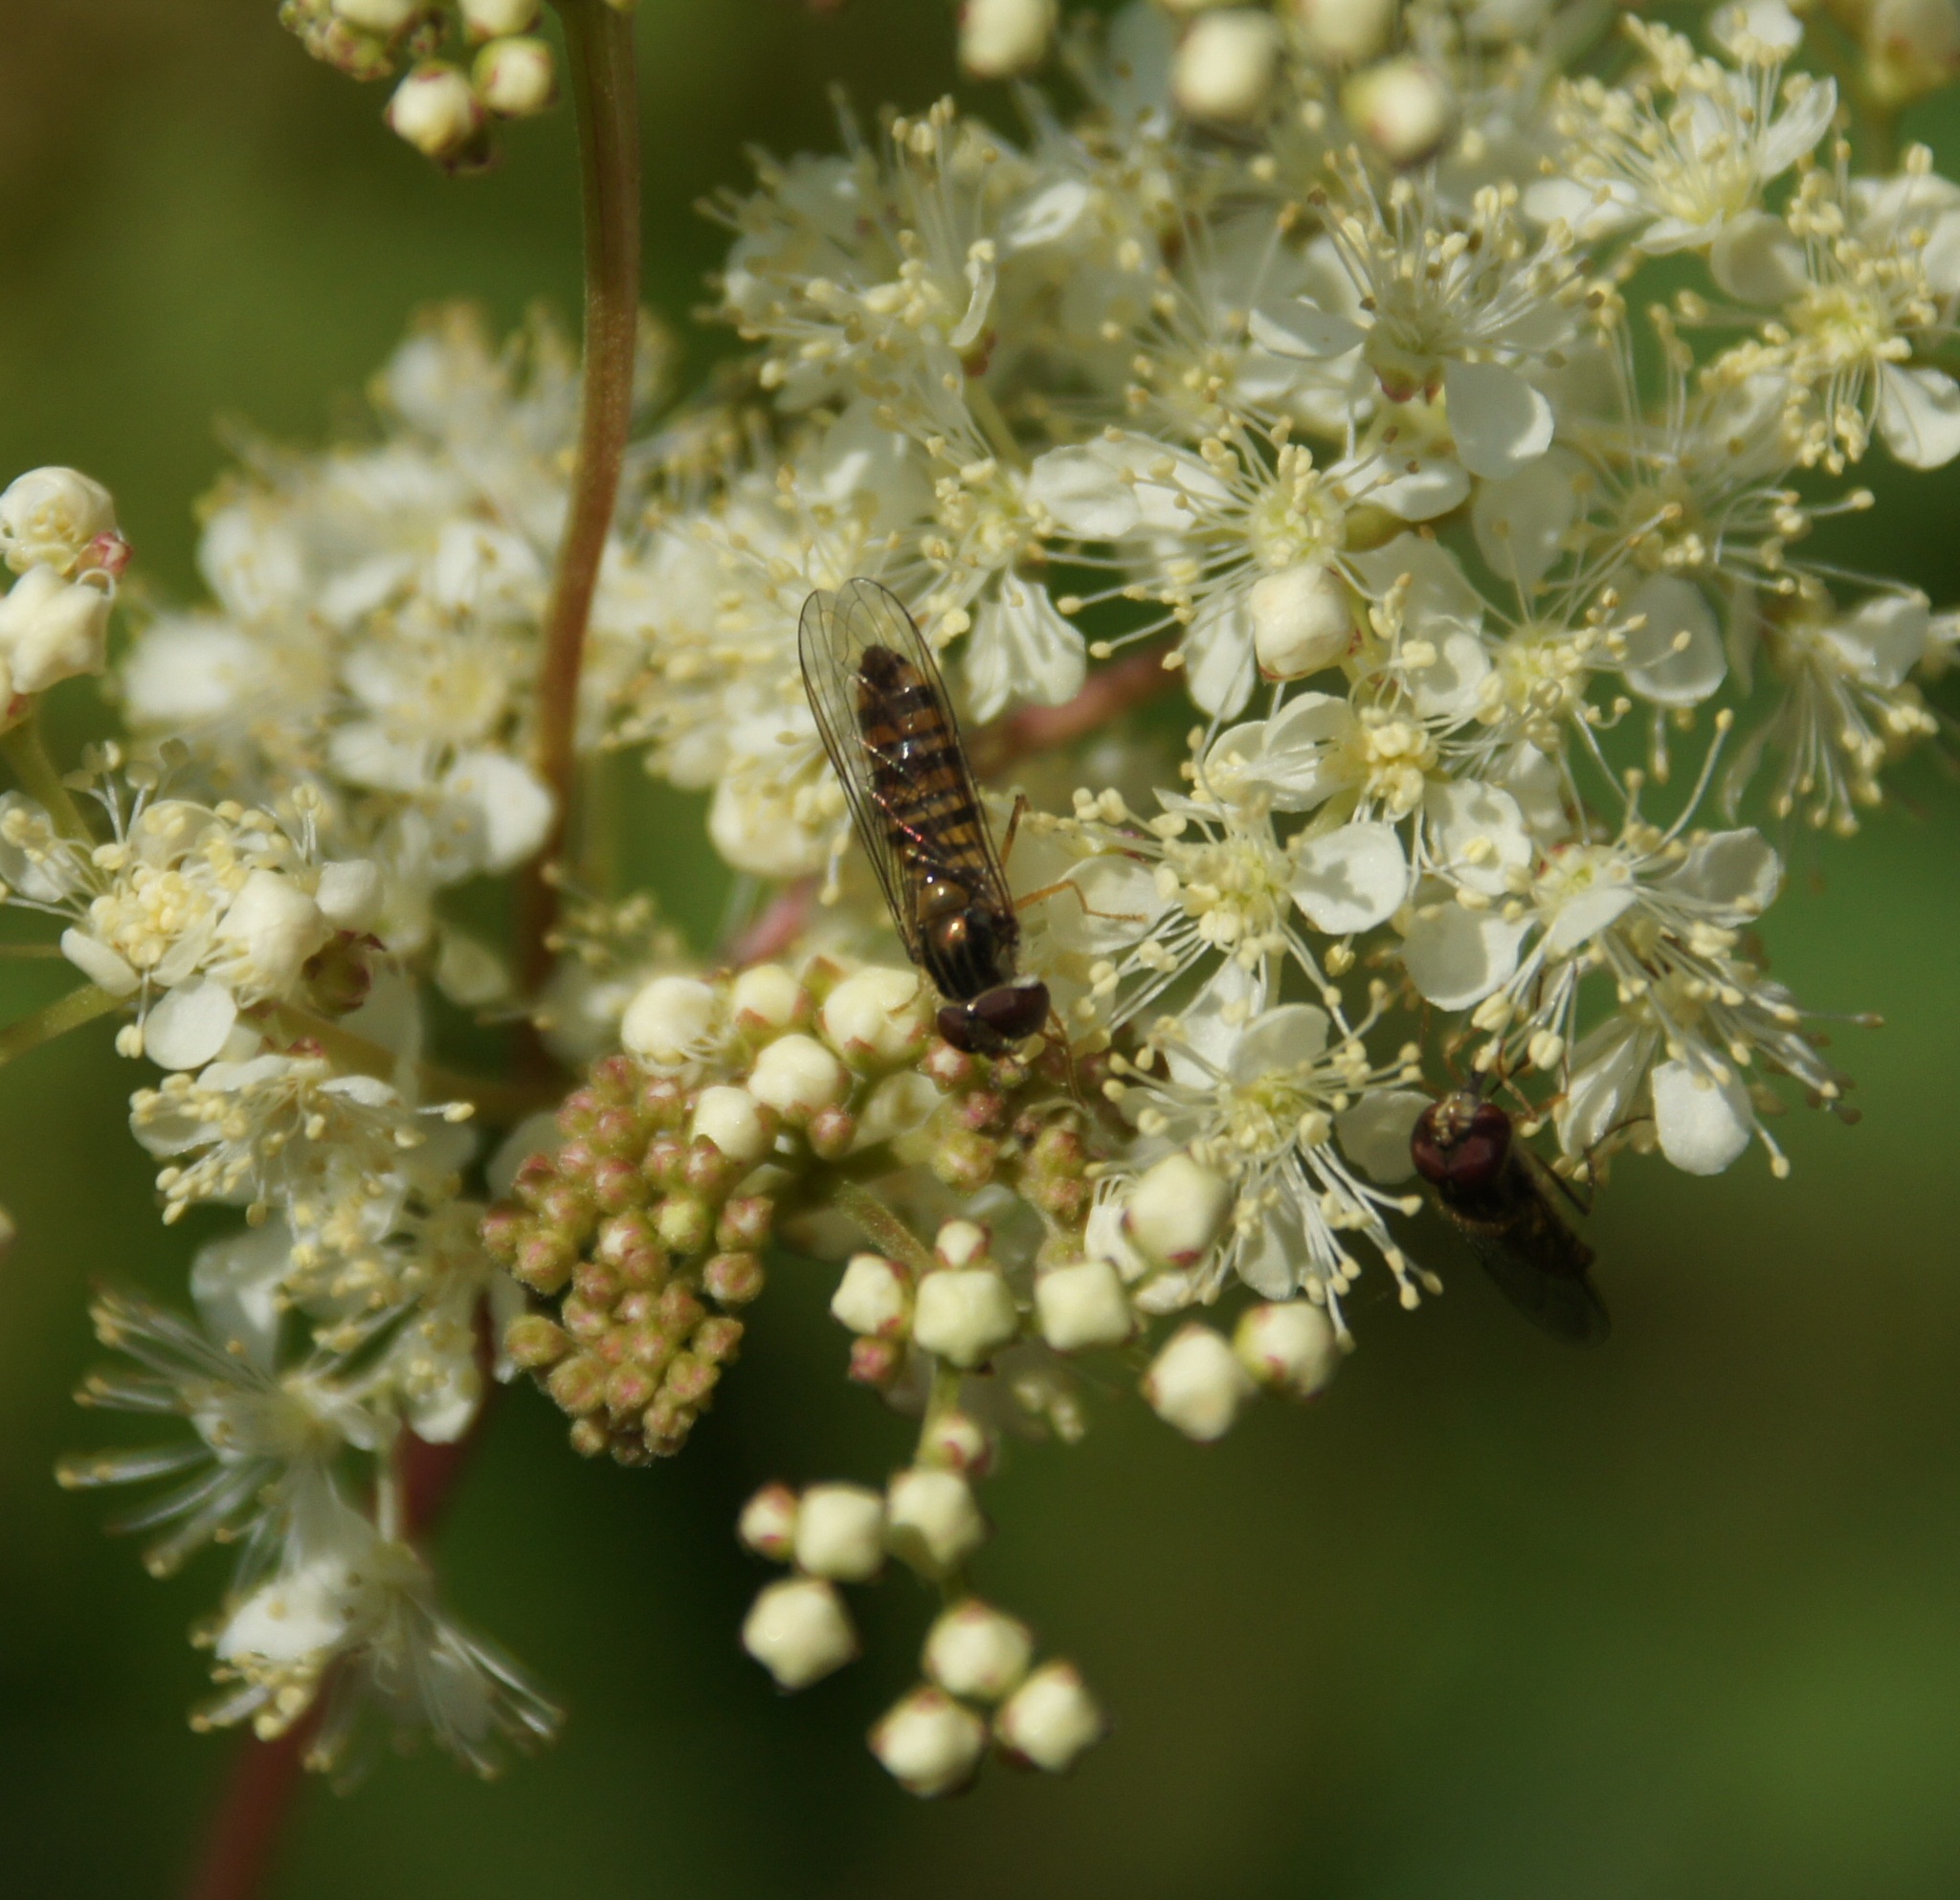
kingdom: Animalia
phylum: Arthropoda
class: Insecta
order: Diptera
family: Syrphidae
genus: Episyrphus
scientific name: Episyrphus balteatus
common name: Marmalade hoverfly
